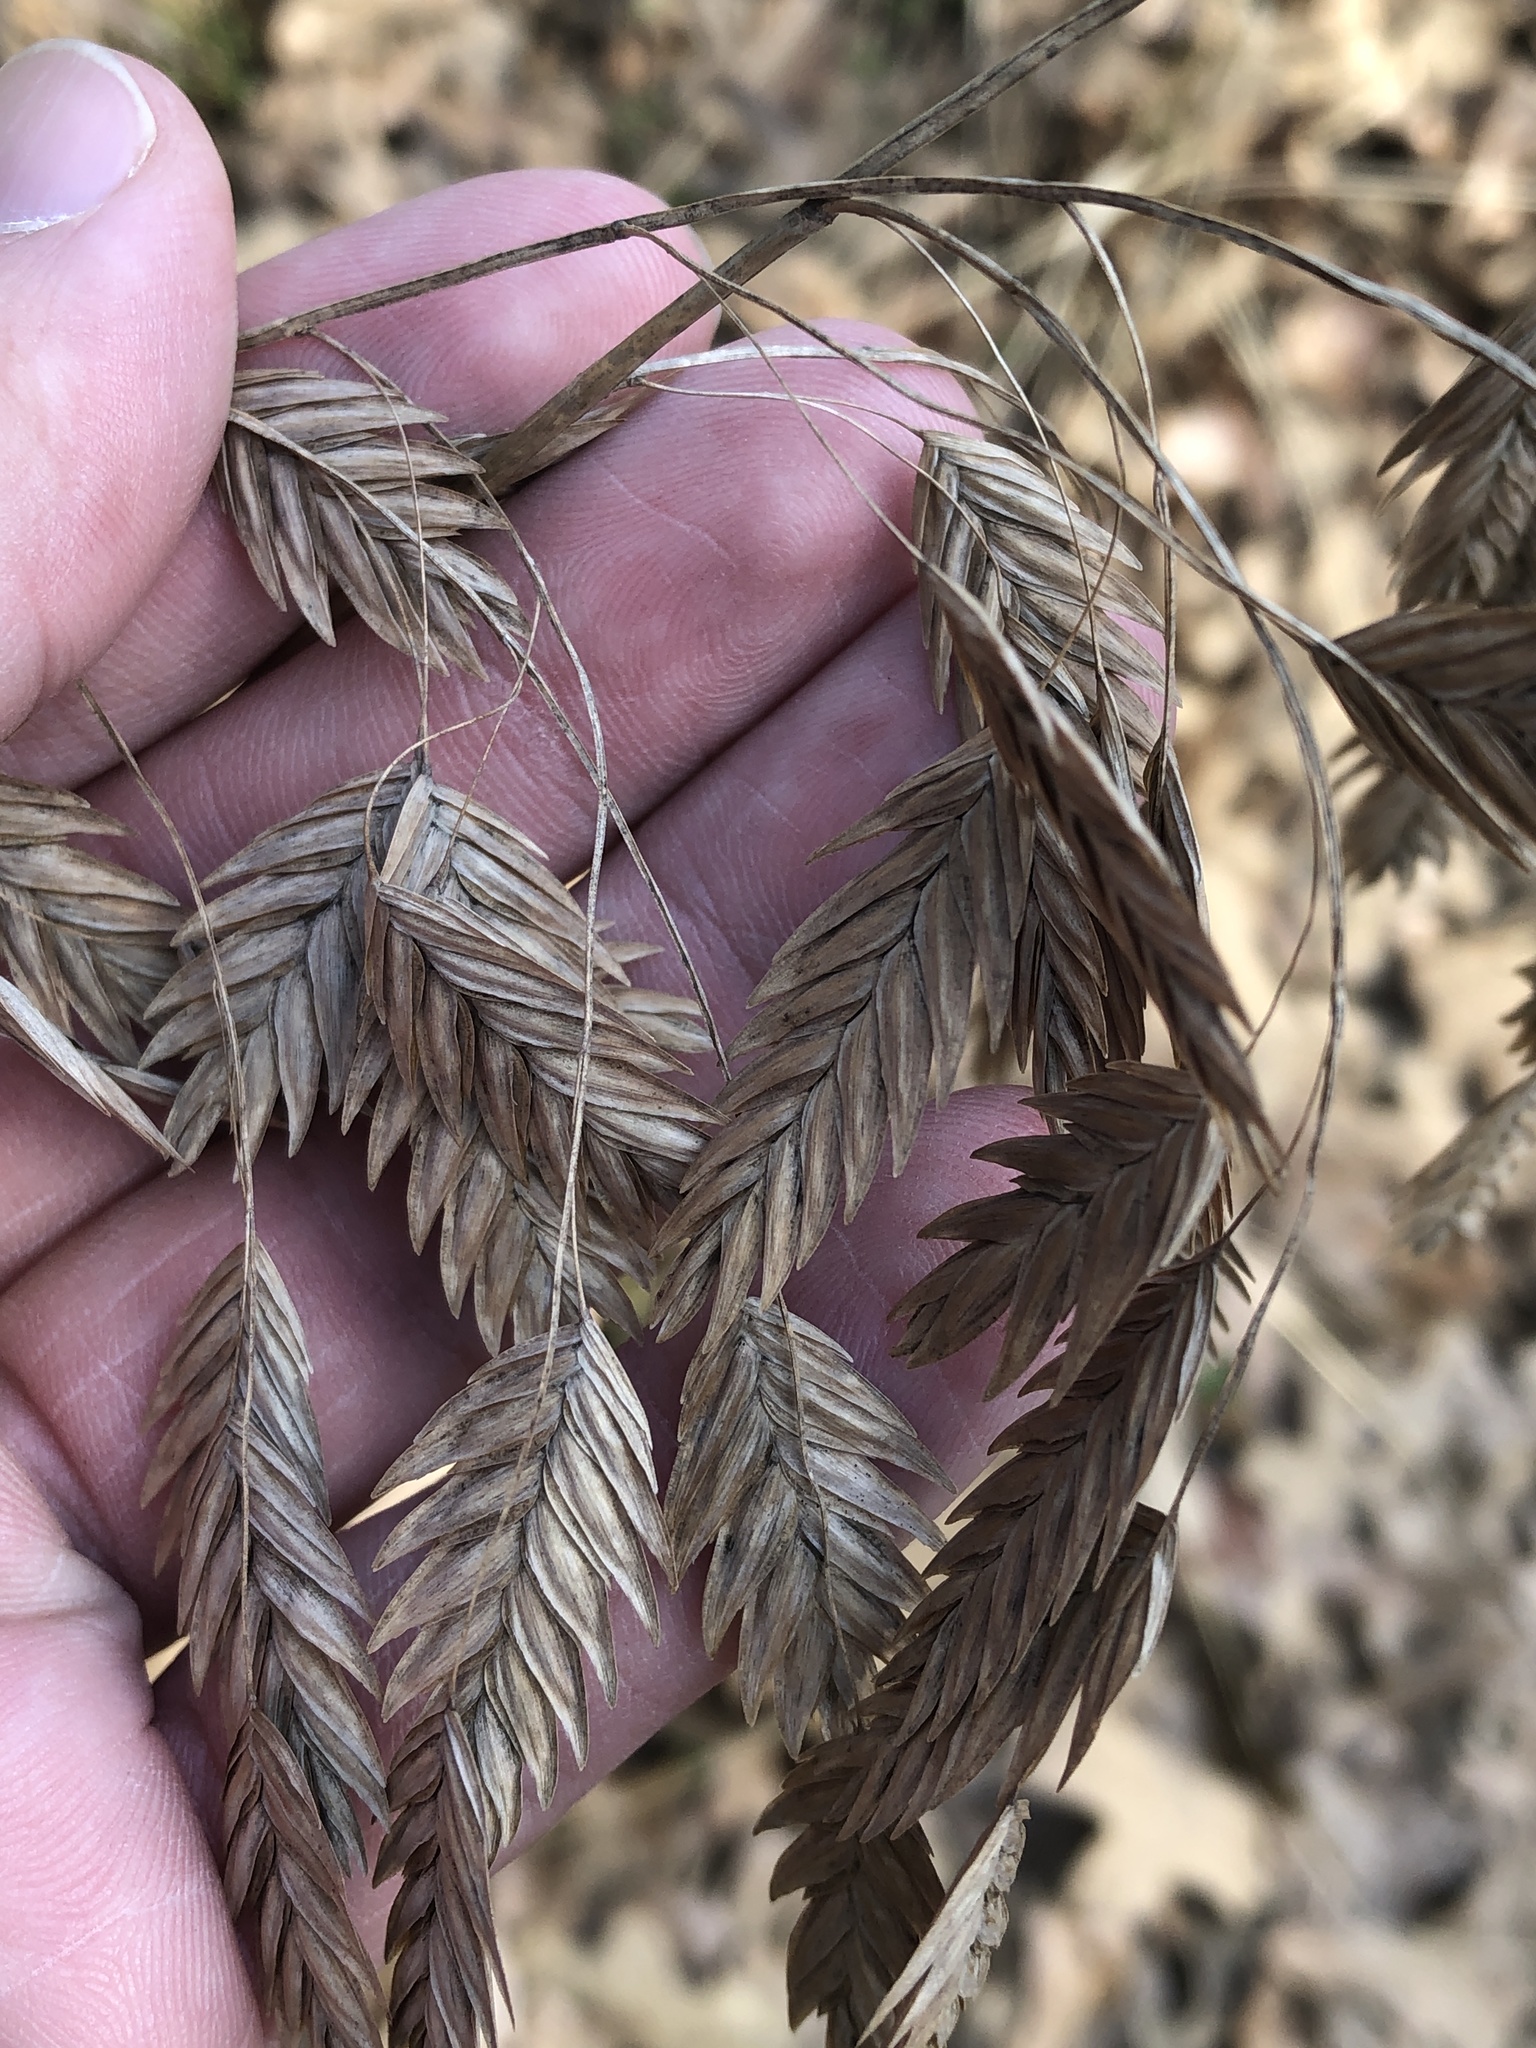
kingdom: Plantae
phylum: Tracheophyta
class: Liliopsida
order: Poales
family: Poaceae
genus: Chasmanthium
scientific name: Chasmanthium latifolium
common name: Broad-leaved chasmanthium
